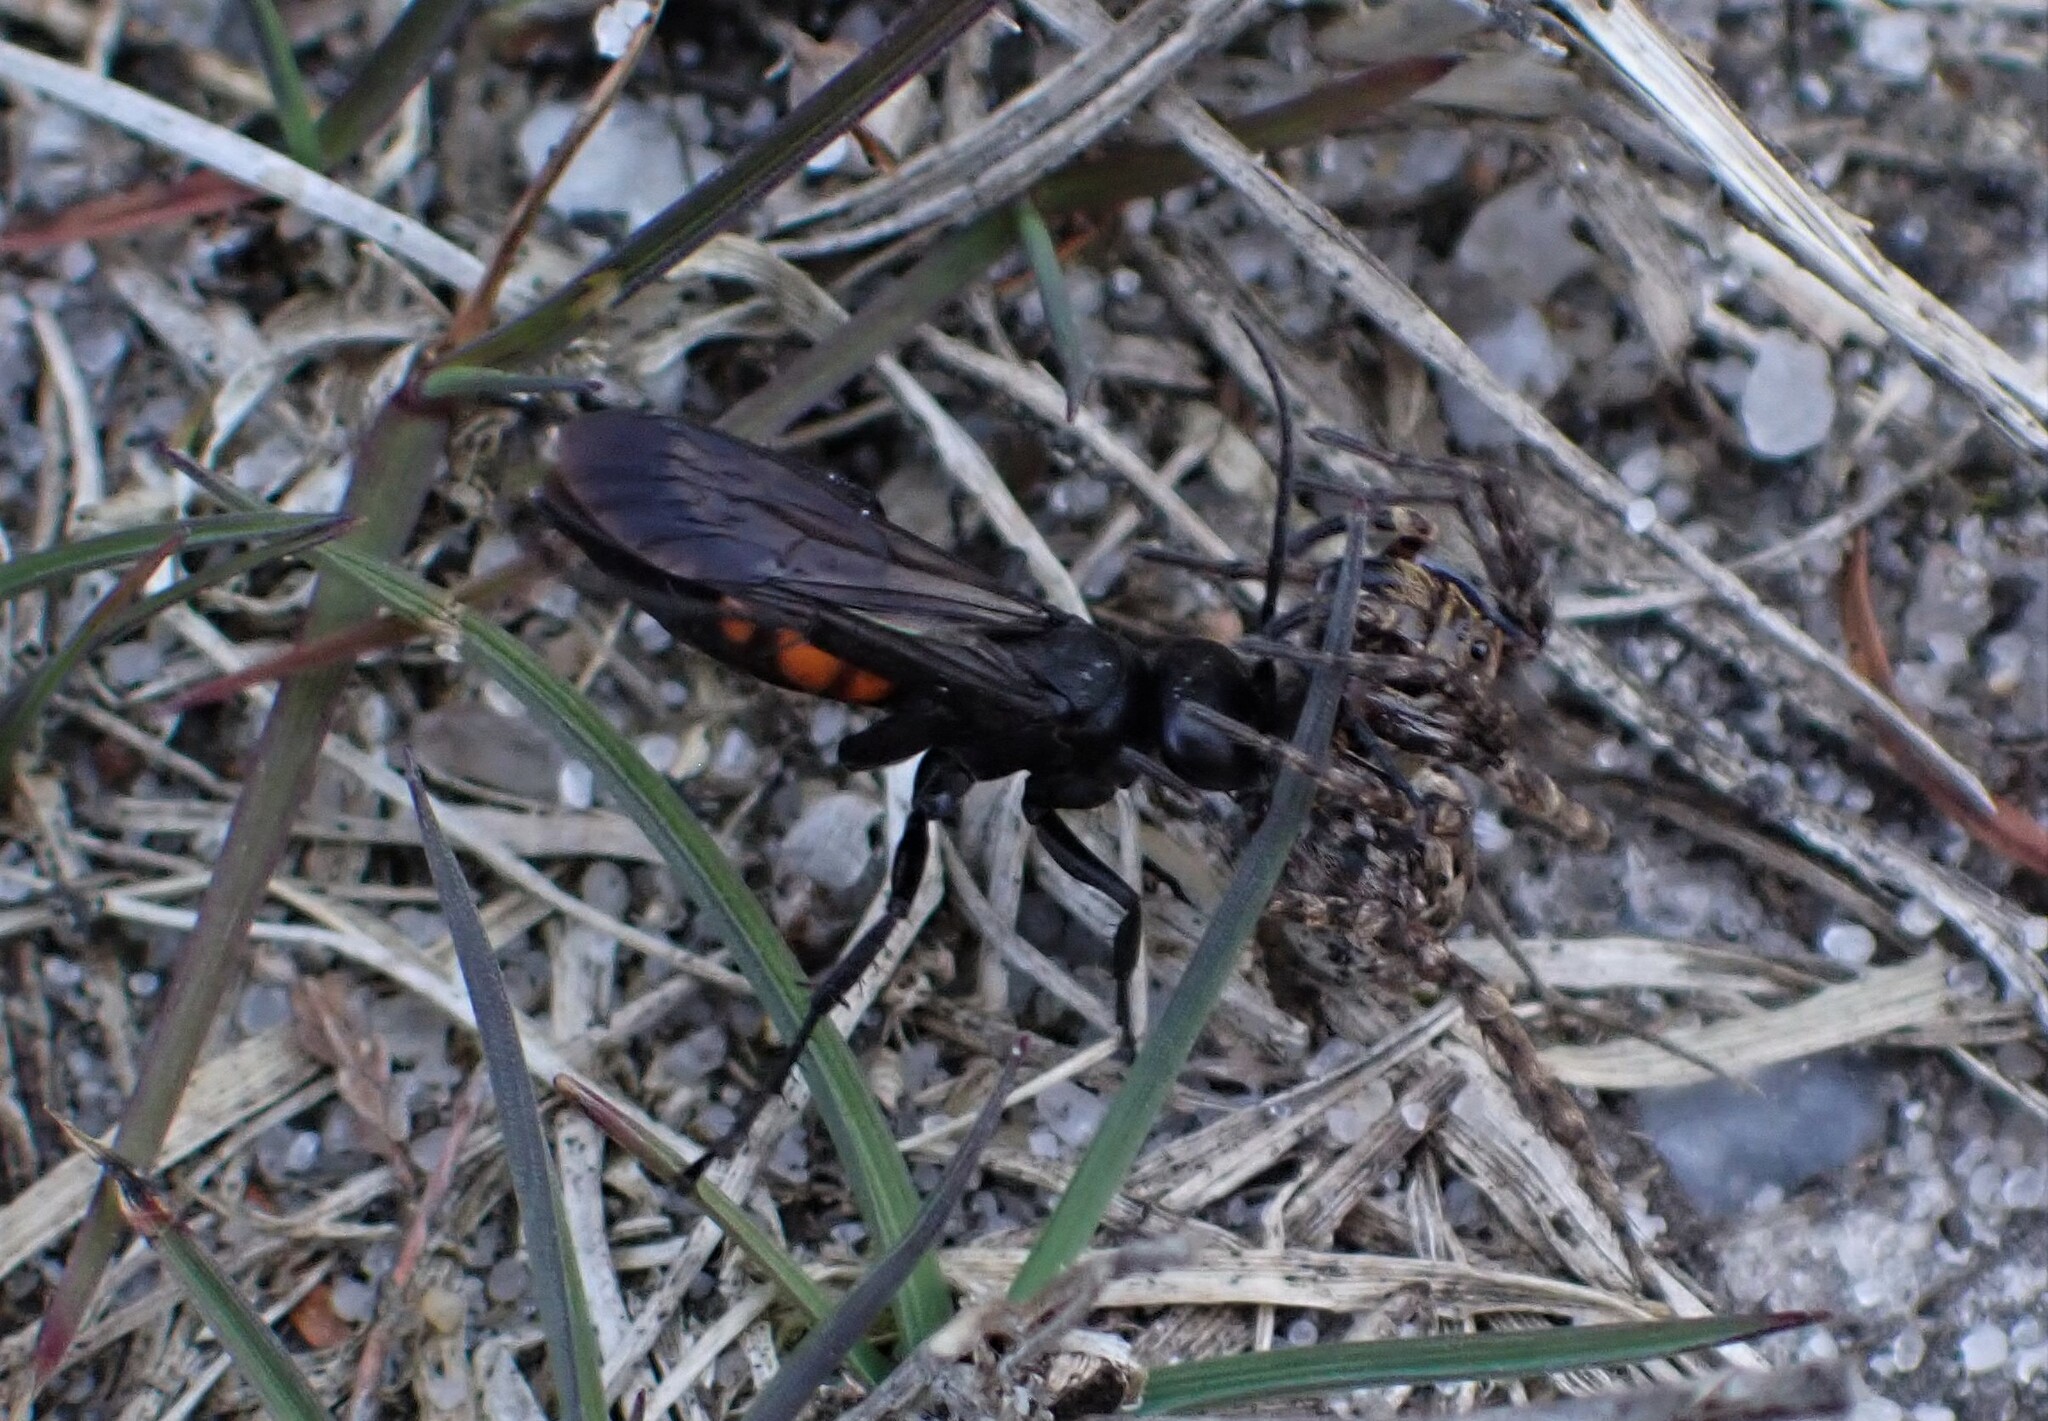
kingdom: Animalia
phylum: Arthropoda
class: Insecta
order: Hymenoptera
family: Pompilidae
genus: Anoplius
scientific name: Anoplius viaticus
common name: Black banded spider wasp
